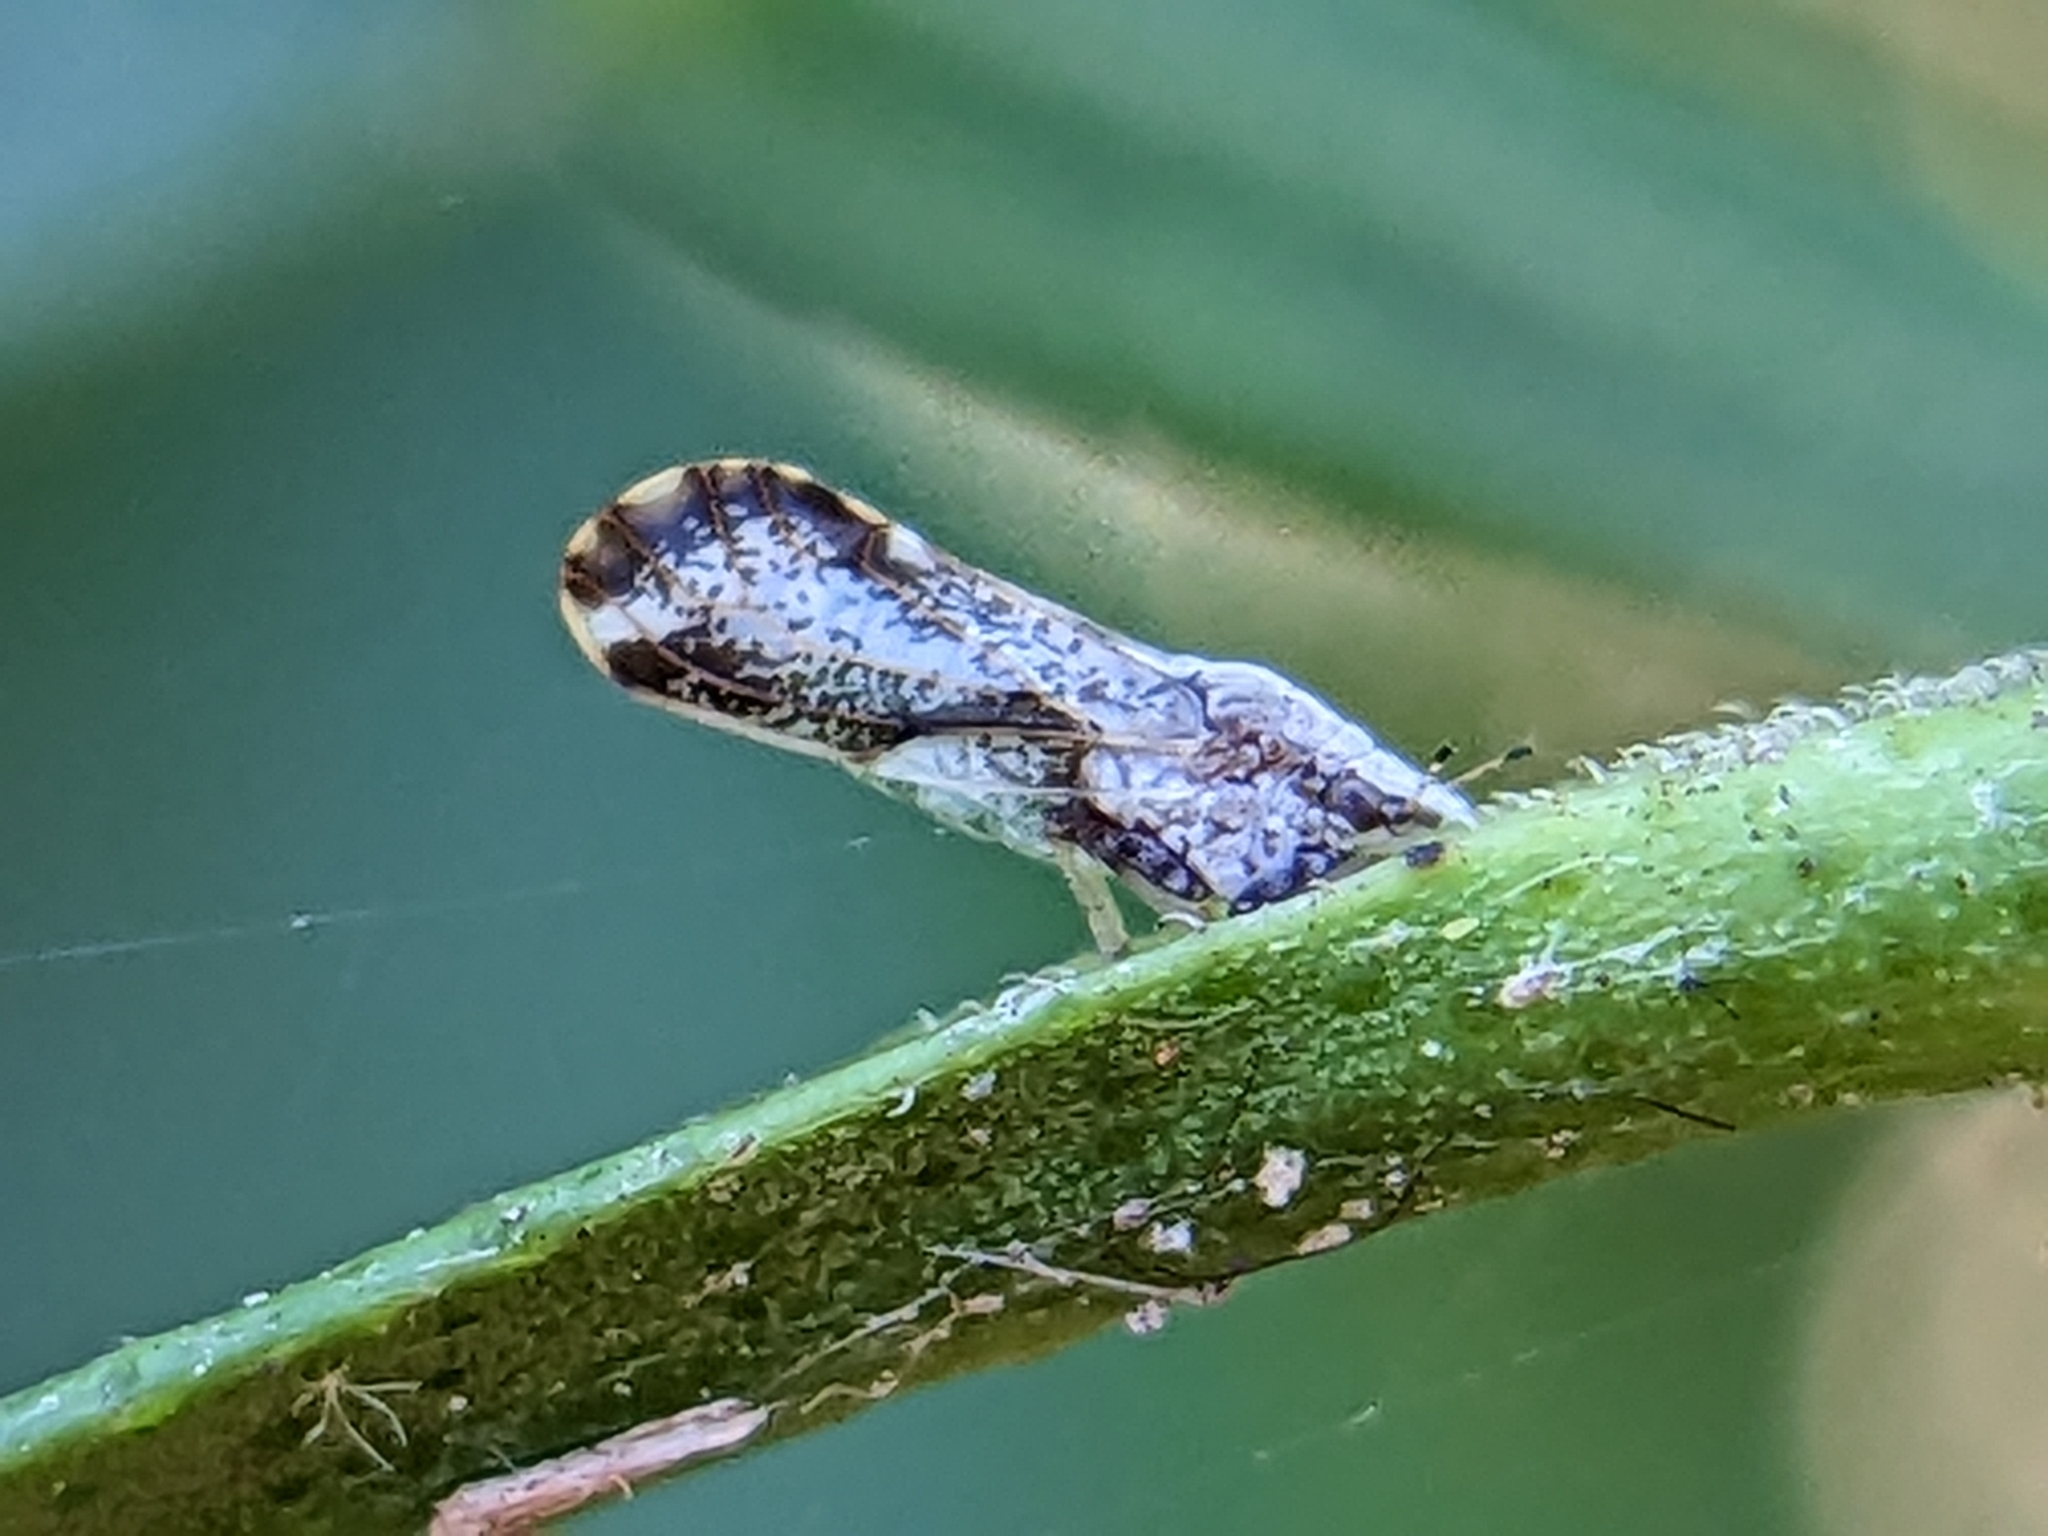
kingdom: Animalia
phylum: Arthropoda
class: Insecta
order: Hemiptera
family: Liviidae
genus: Diaphorina
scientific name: Diaphorina citri
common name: Asian citrus psyllid
